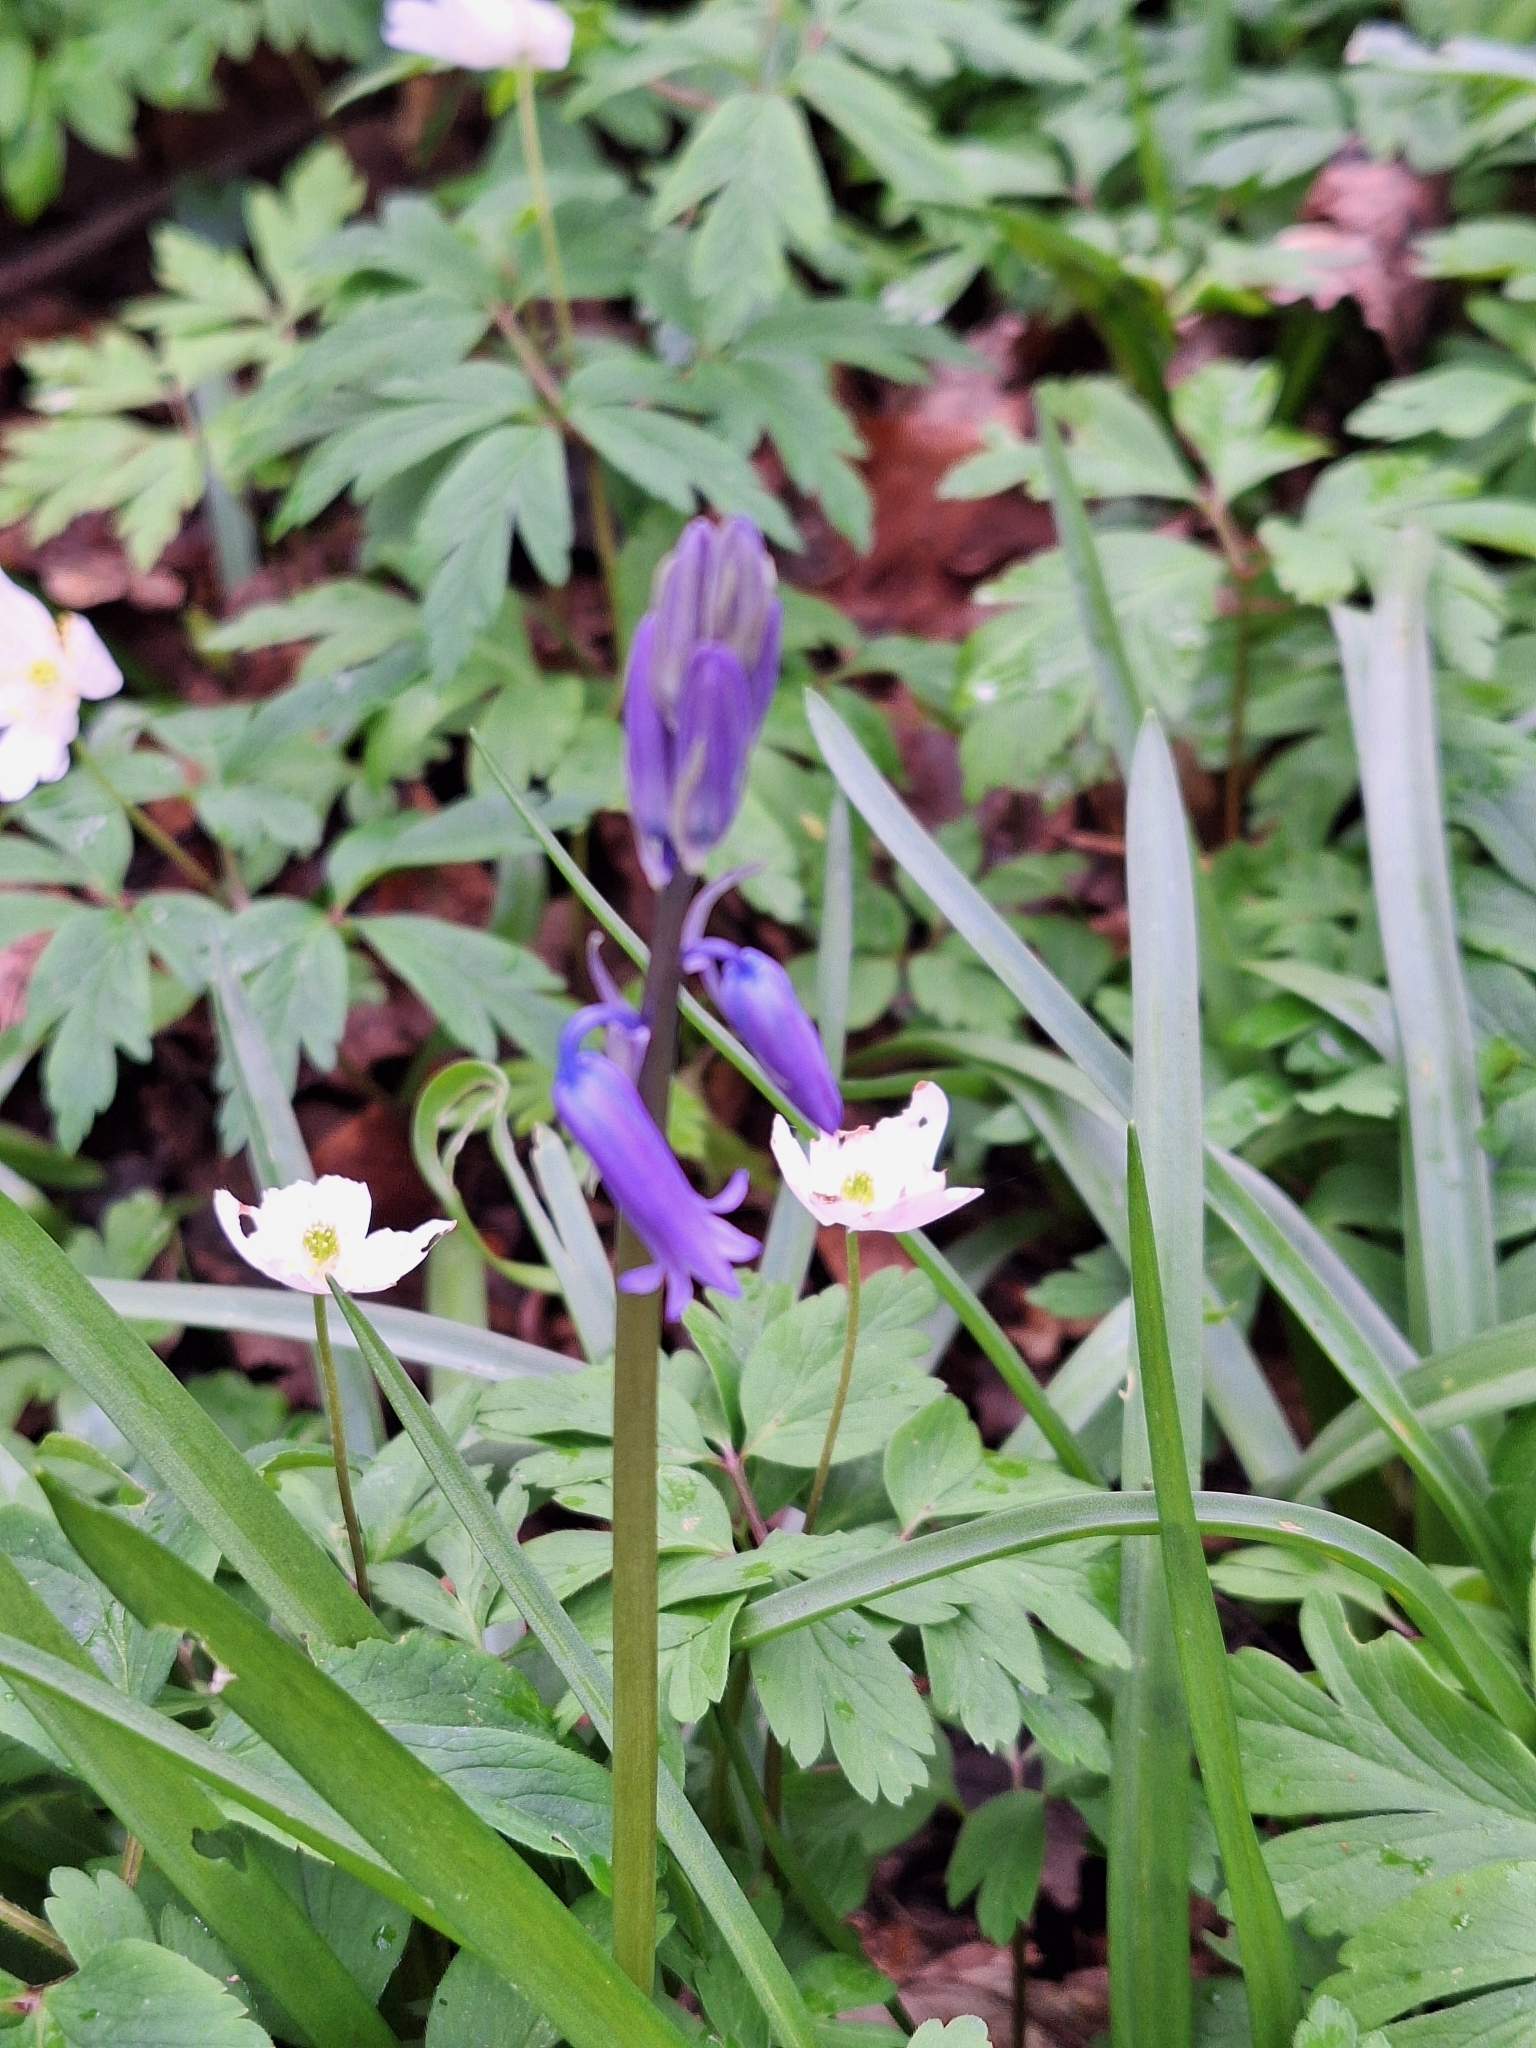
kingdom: Plantae
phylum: Tracheophyta
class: Liliopsida
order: Asparagales
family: Asparagaceae
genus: Hyacinthoides
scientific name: Hyacinthoides non-scripta
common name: Bluebell
